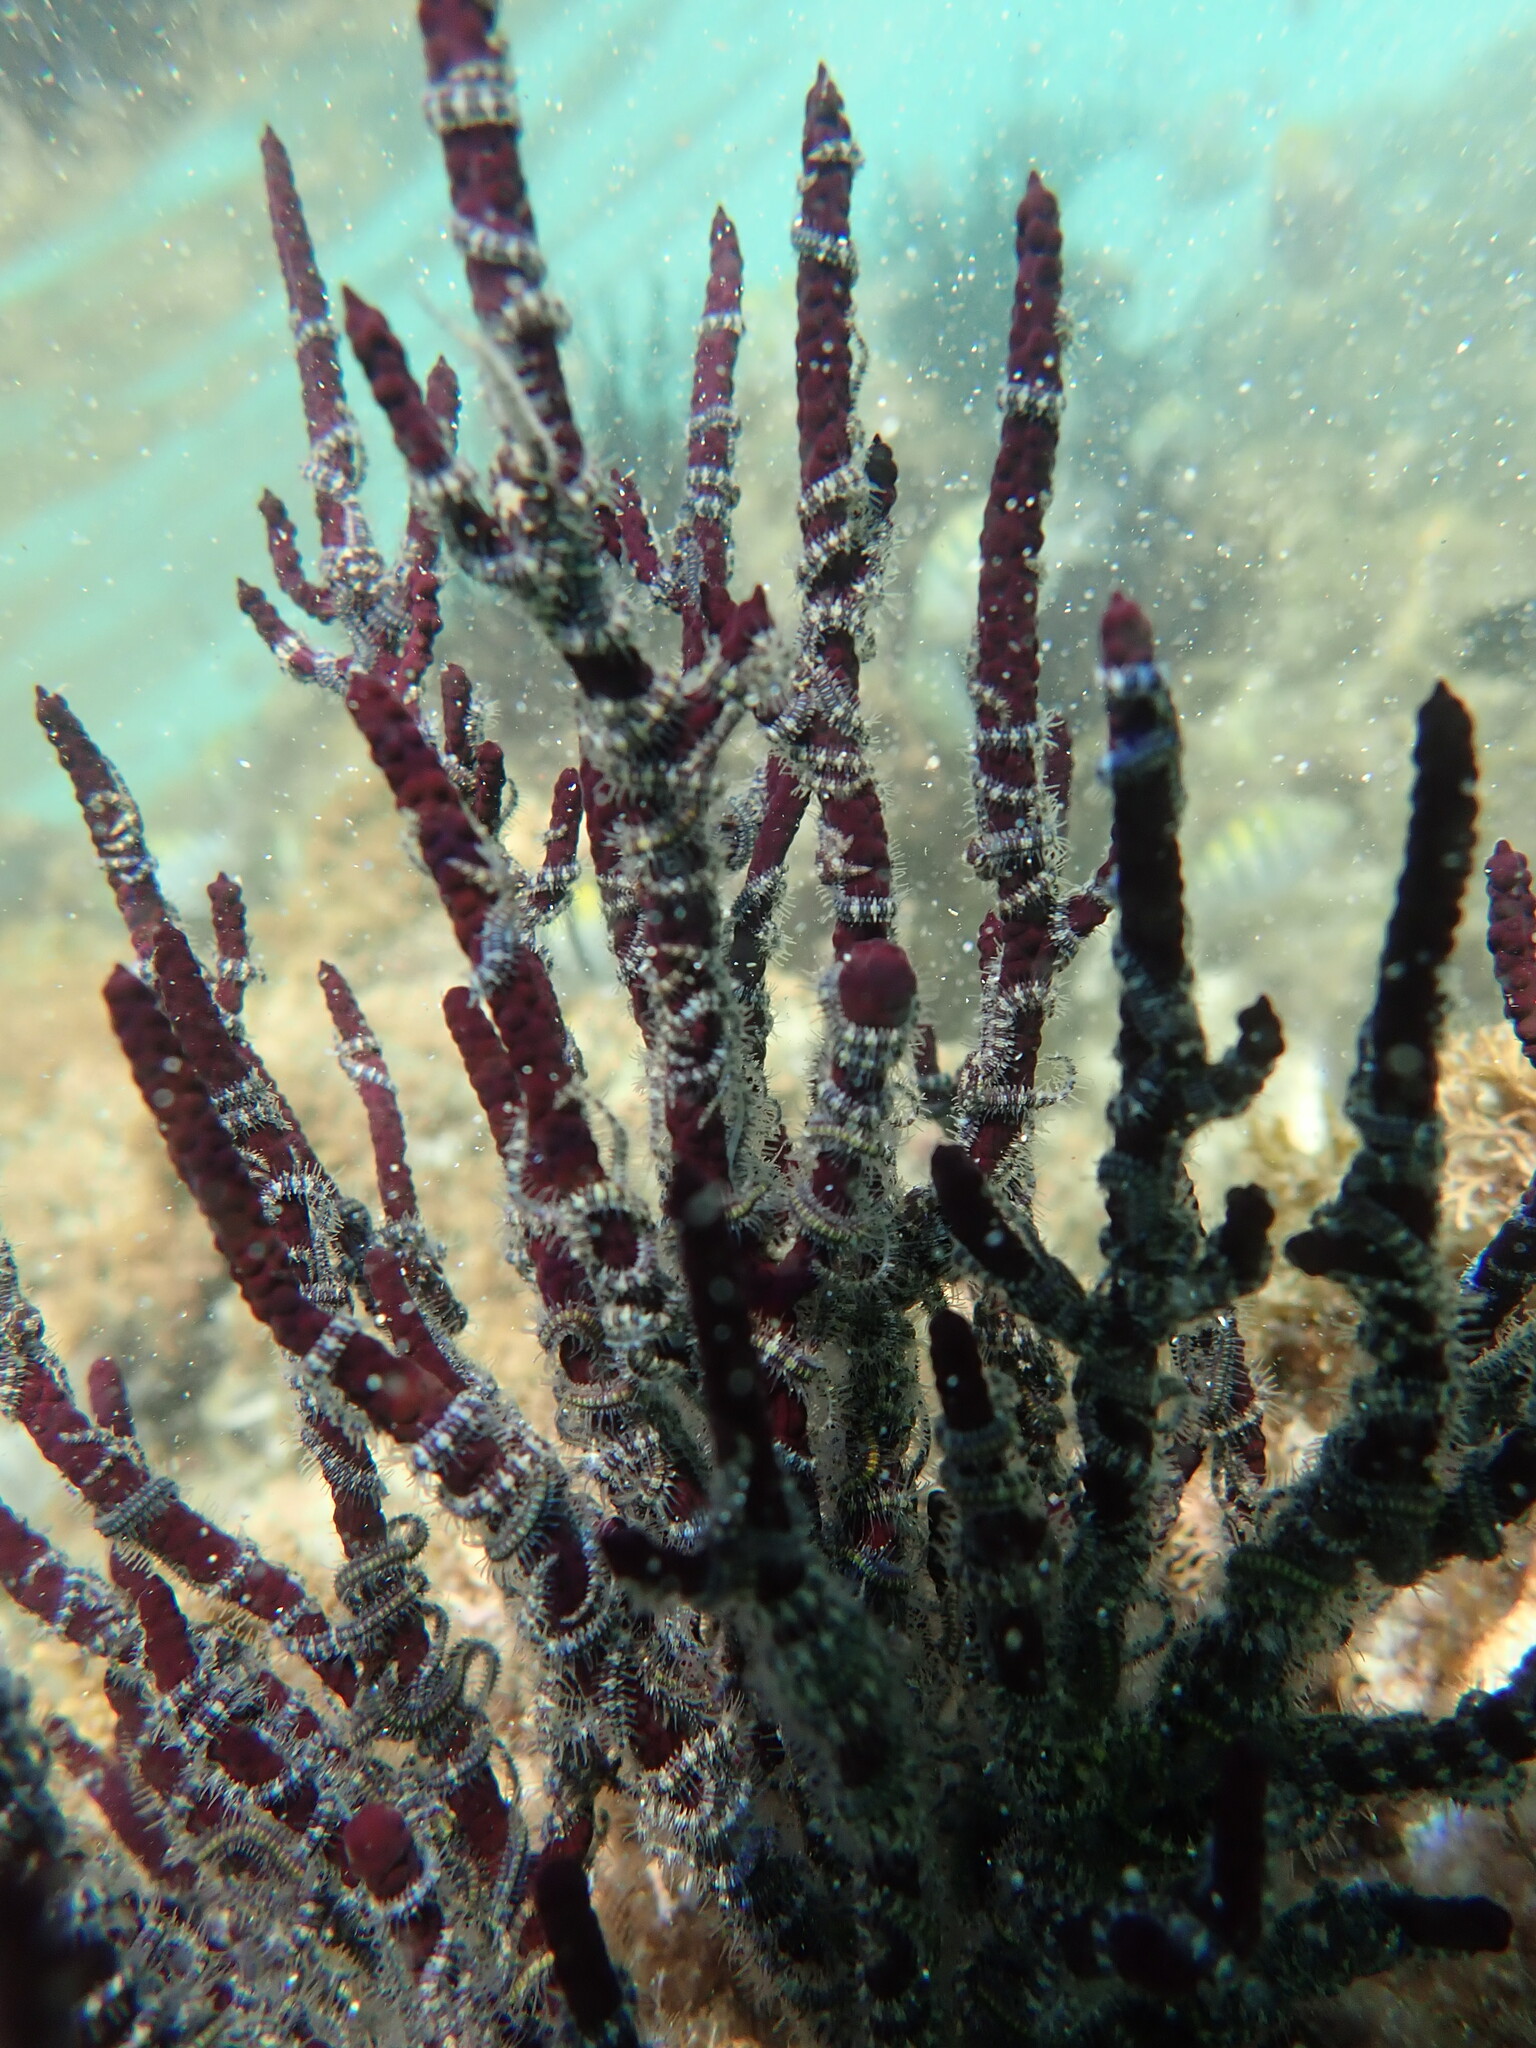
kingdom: Animalia
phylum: Echinodermata
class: Ophiuroidea
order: Amphilepidida
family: Ophiotrichidae
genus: Ophiothela
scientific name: Ophiothela mirabilis
